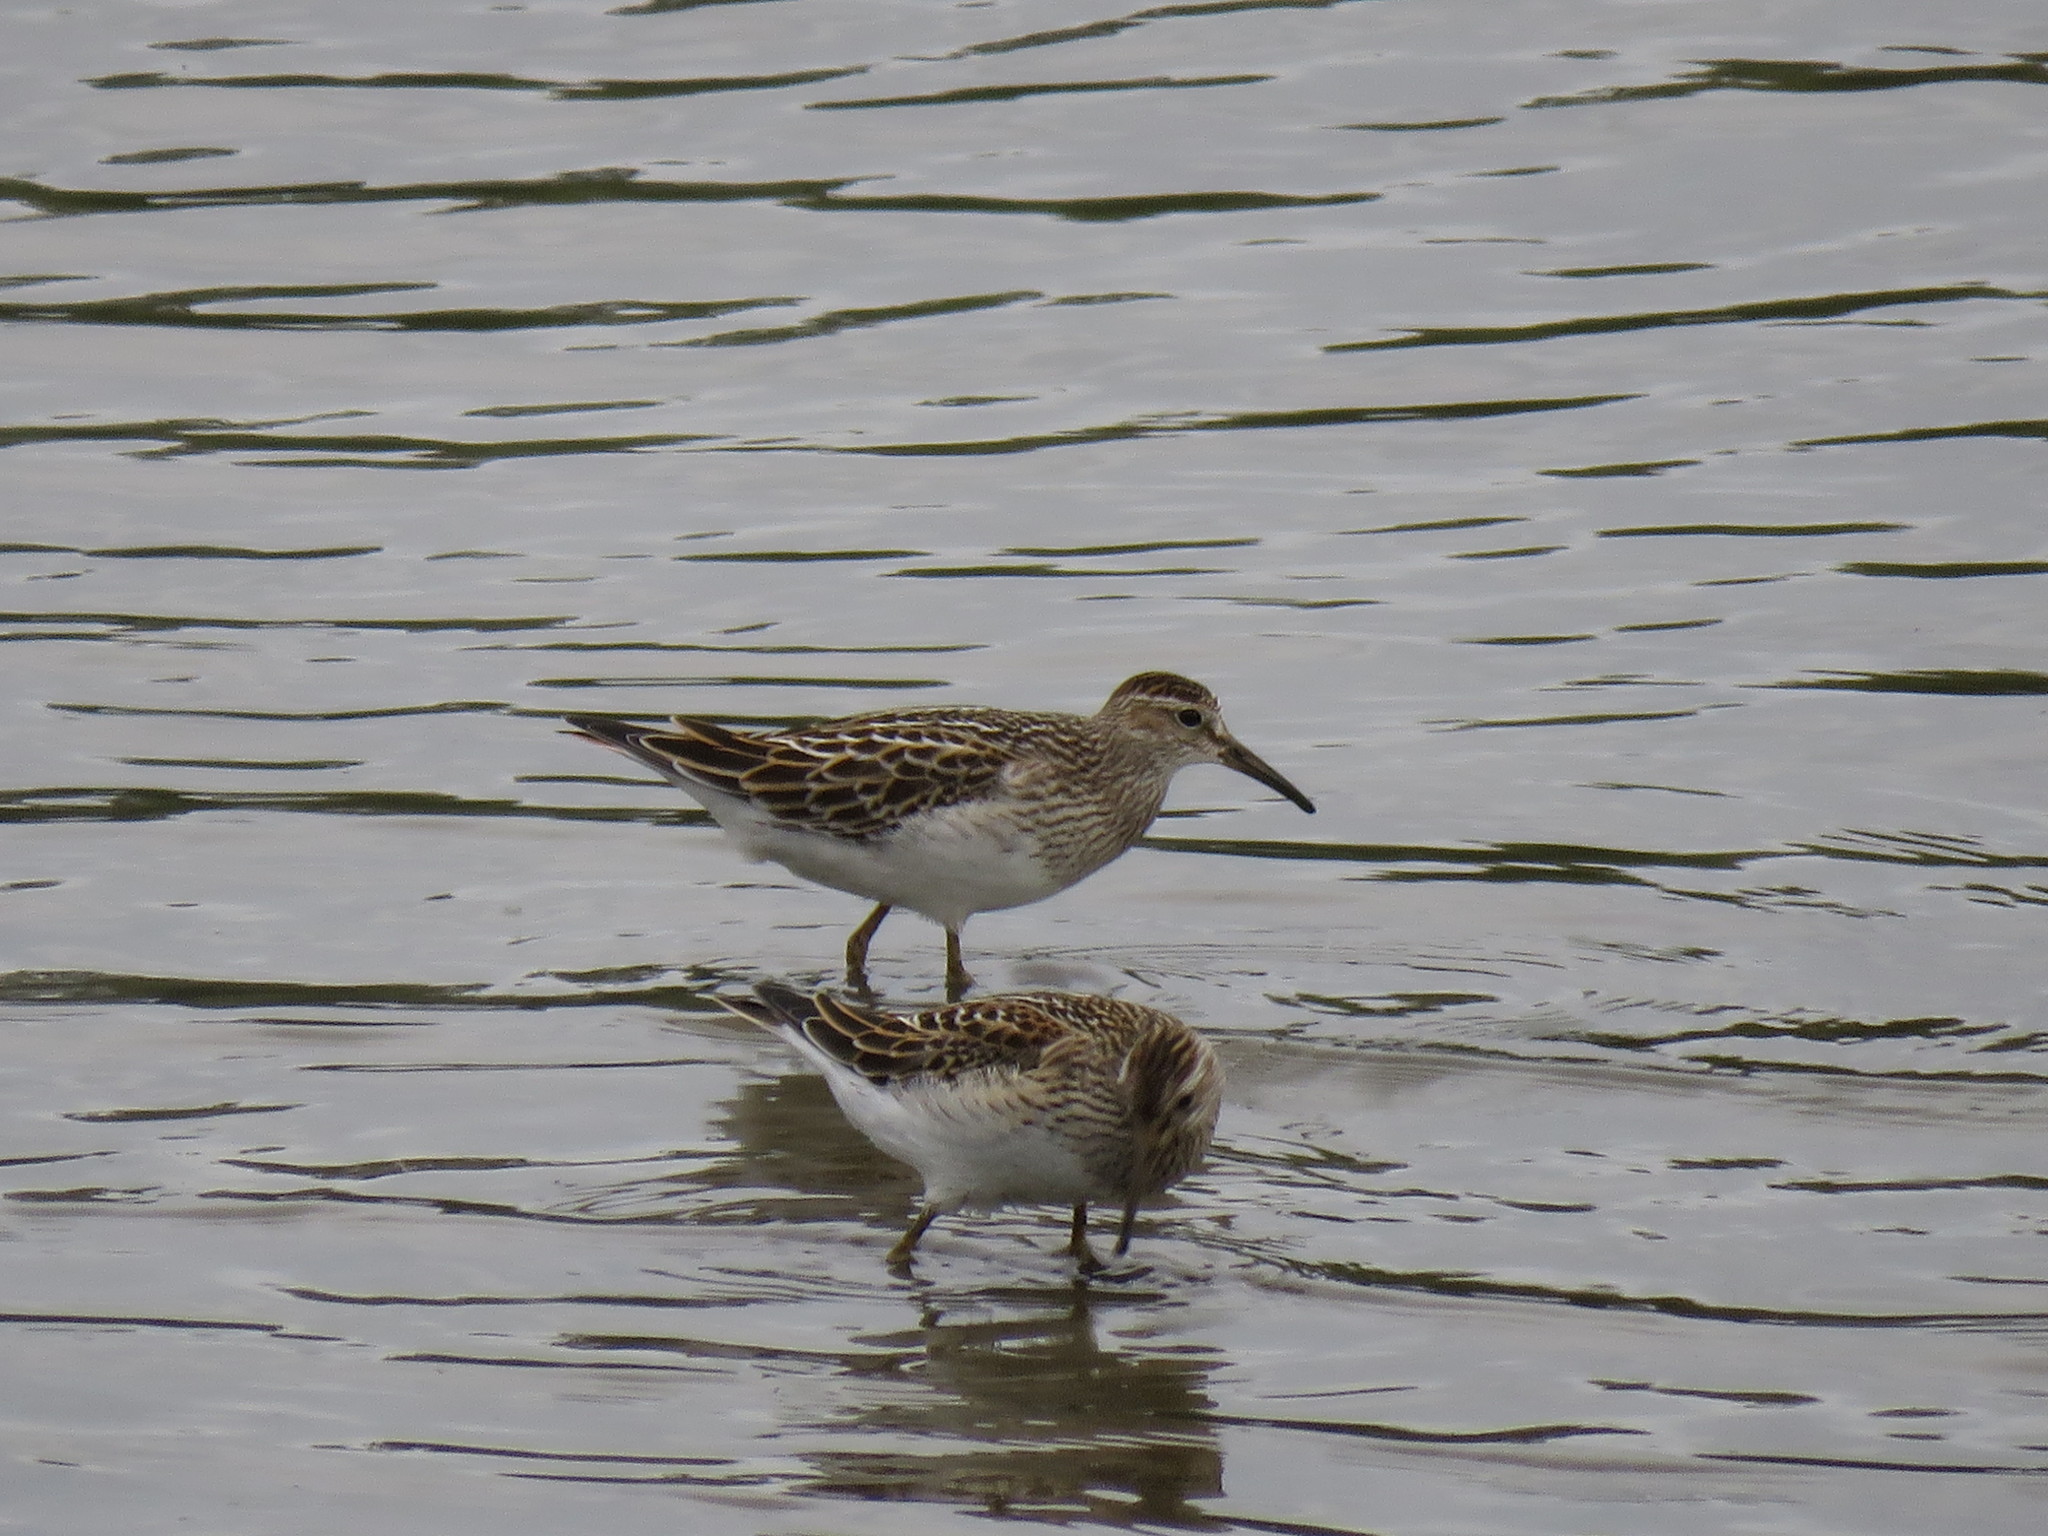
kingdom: Animalia
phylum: Chordata
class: Aves
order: Charadriiformes
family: Scolopacidae
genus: Calidris
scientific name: Calidris melanotos
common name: Pectoral sandpiper
